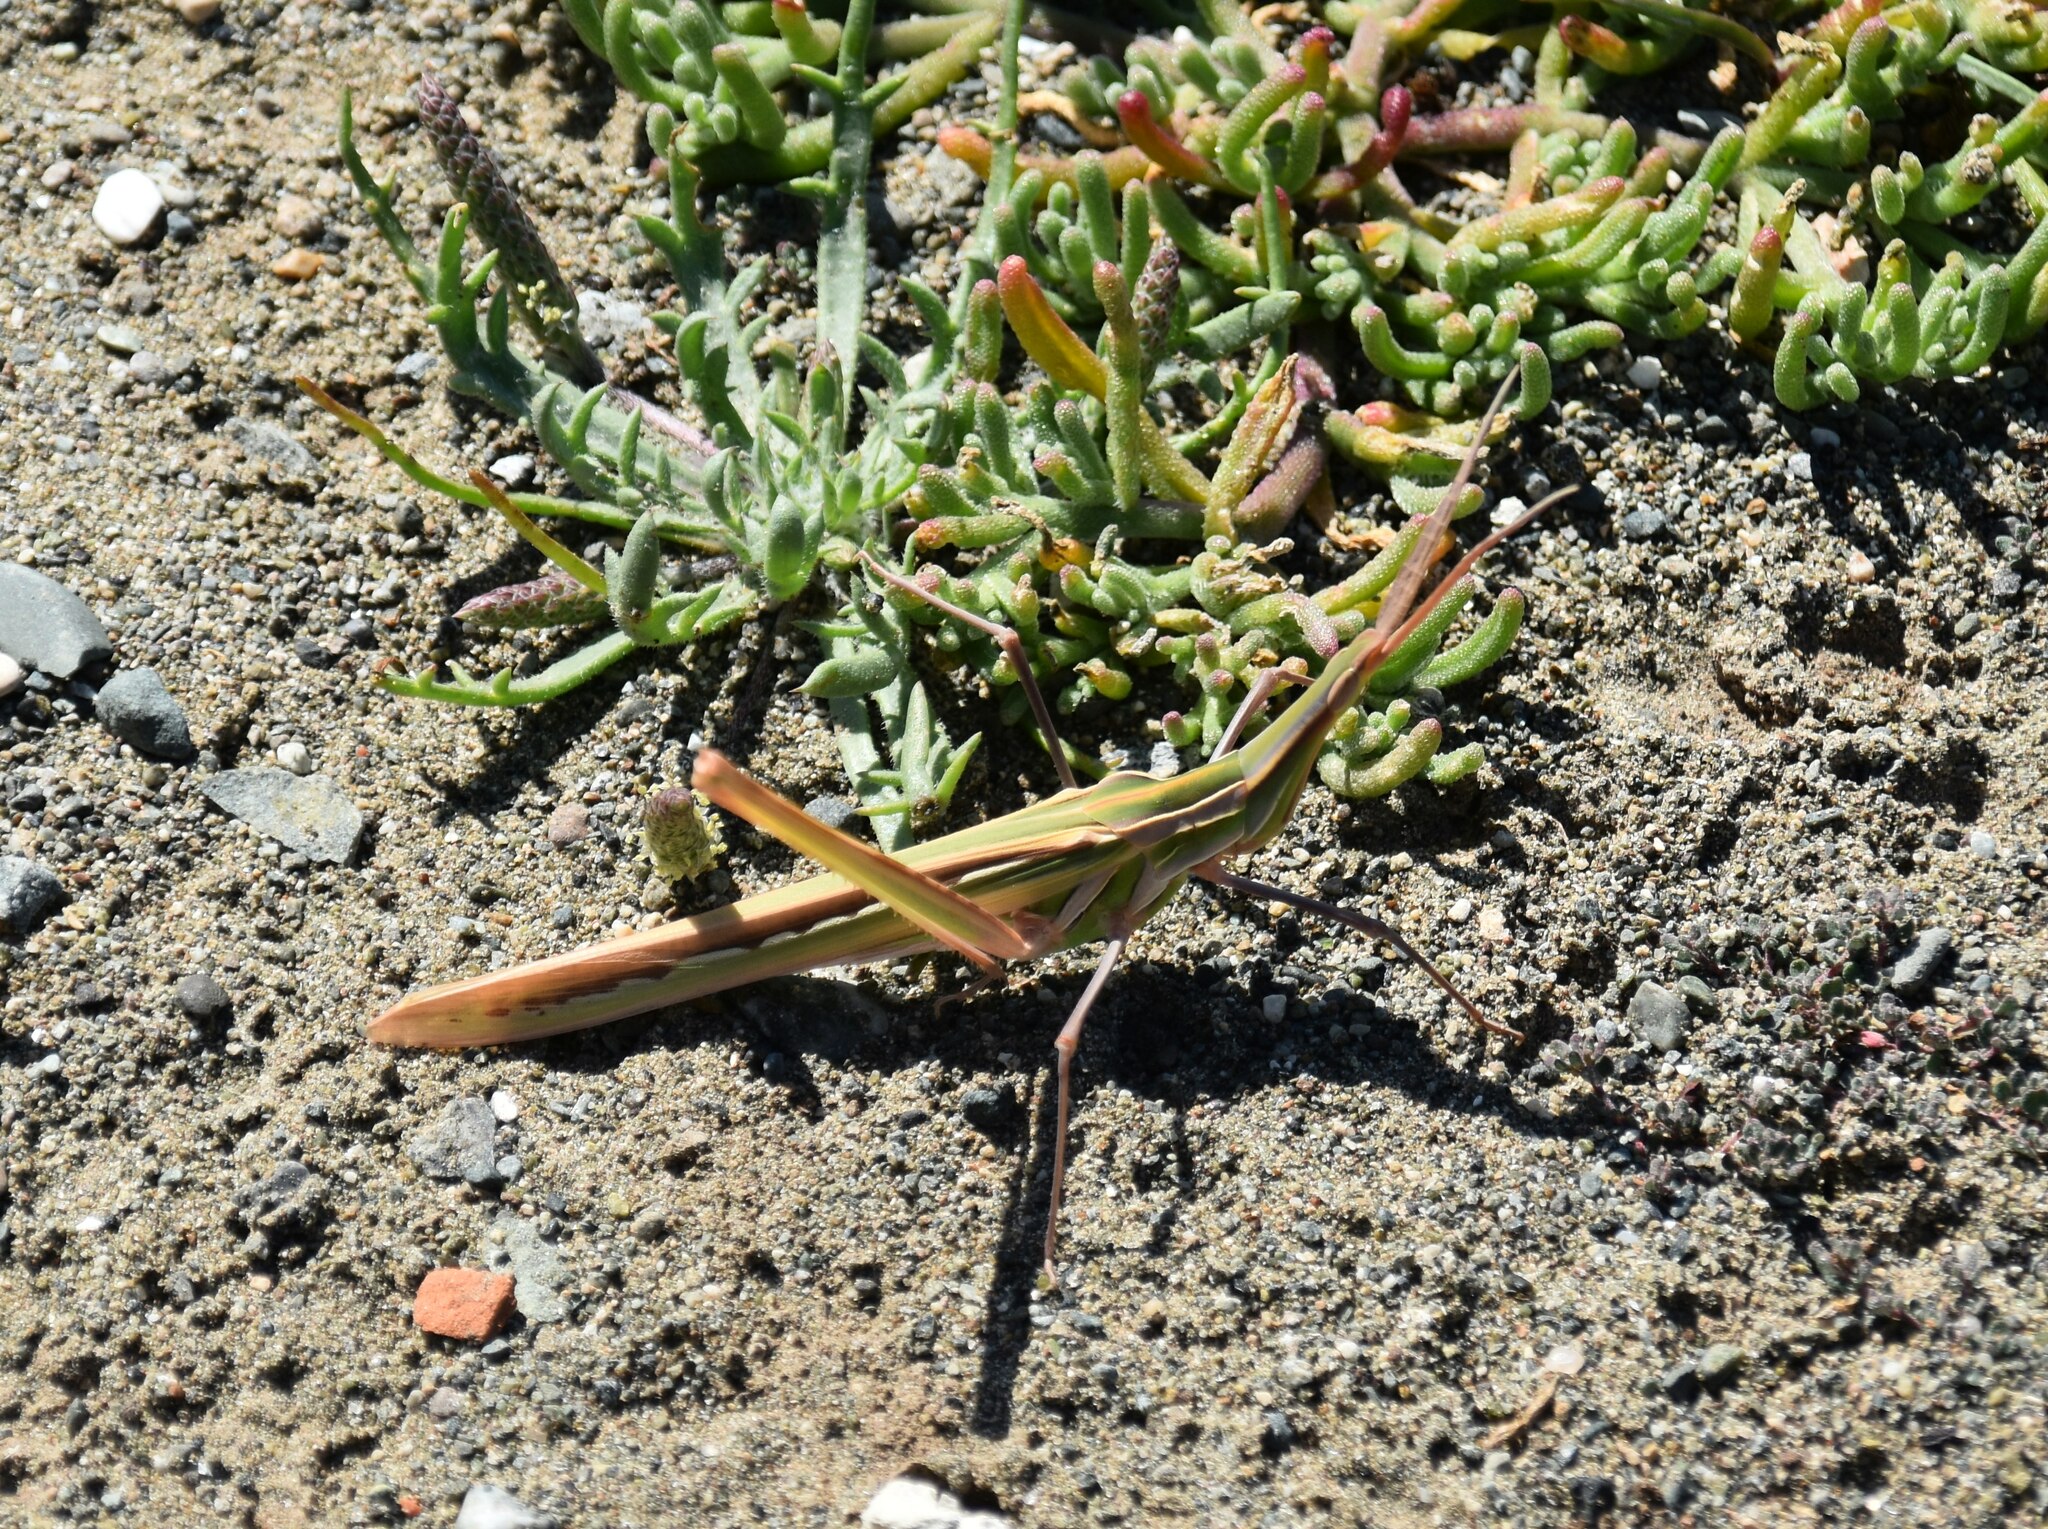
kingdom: Animalia
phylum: Arthropoda
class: Insecta
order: Orthoptera
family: Acrididae
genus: Truxalis
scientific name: Truxalis eximia
